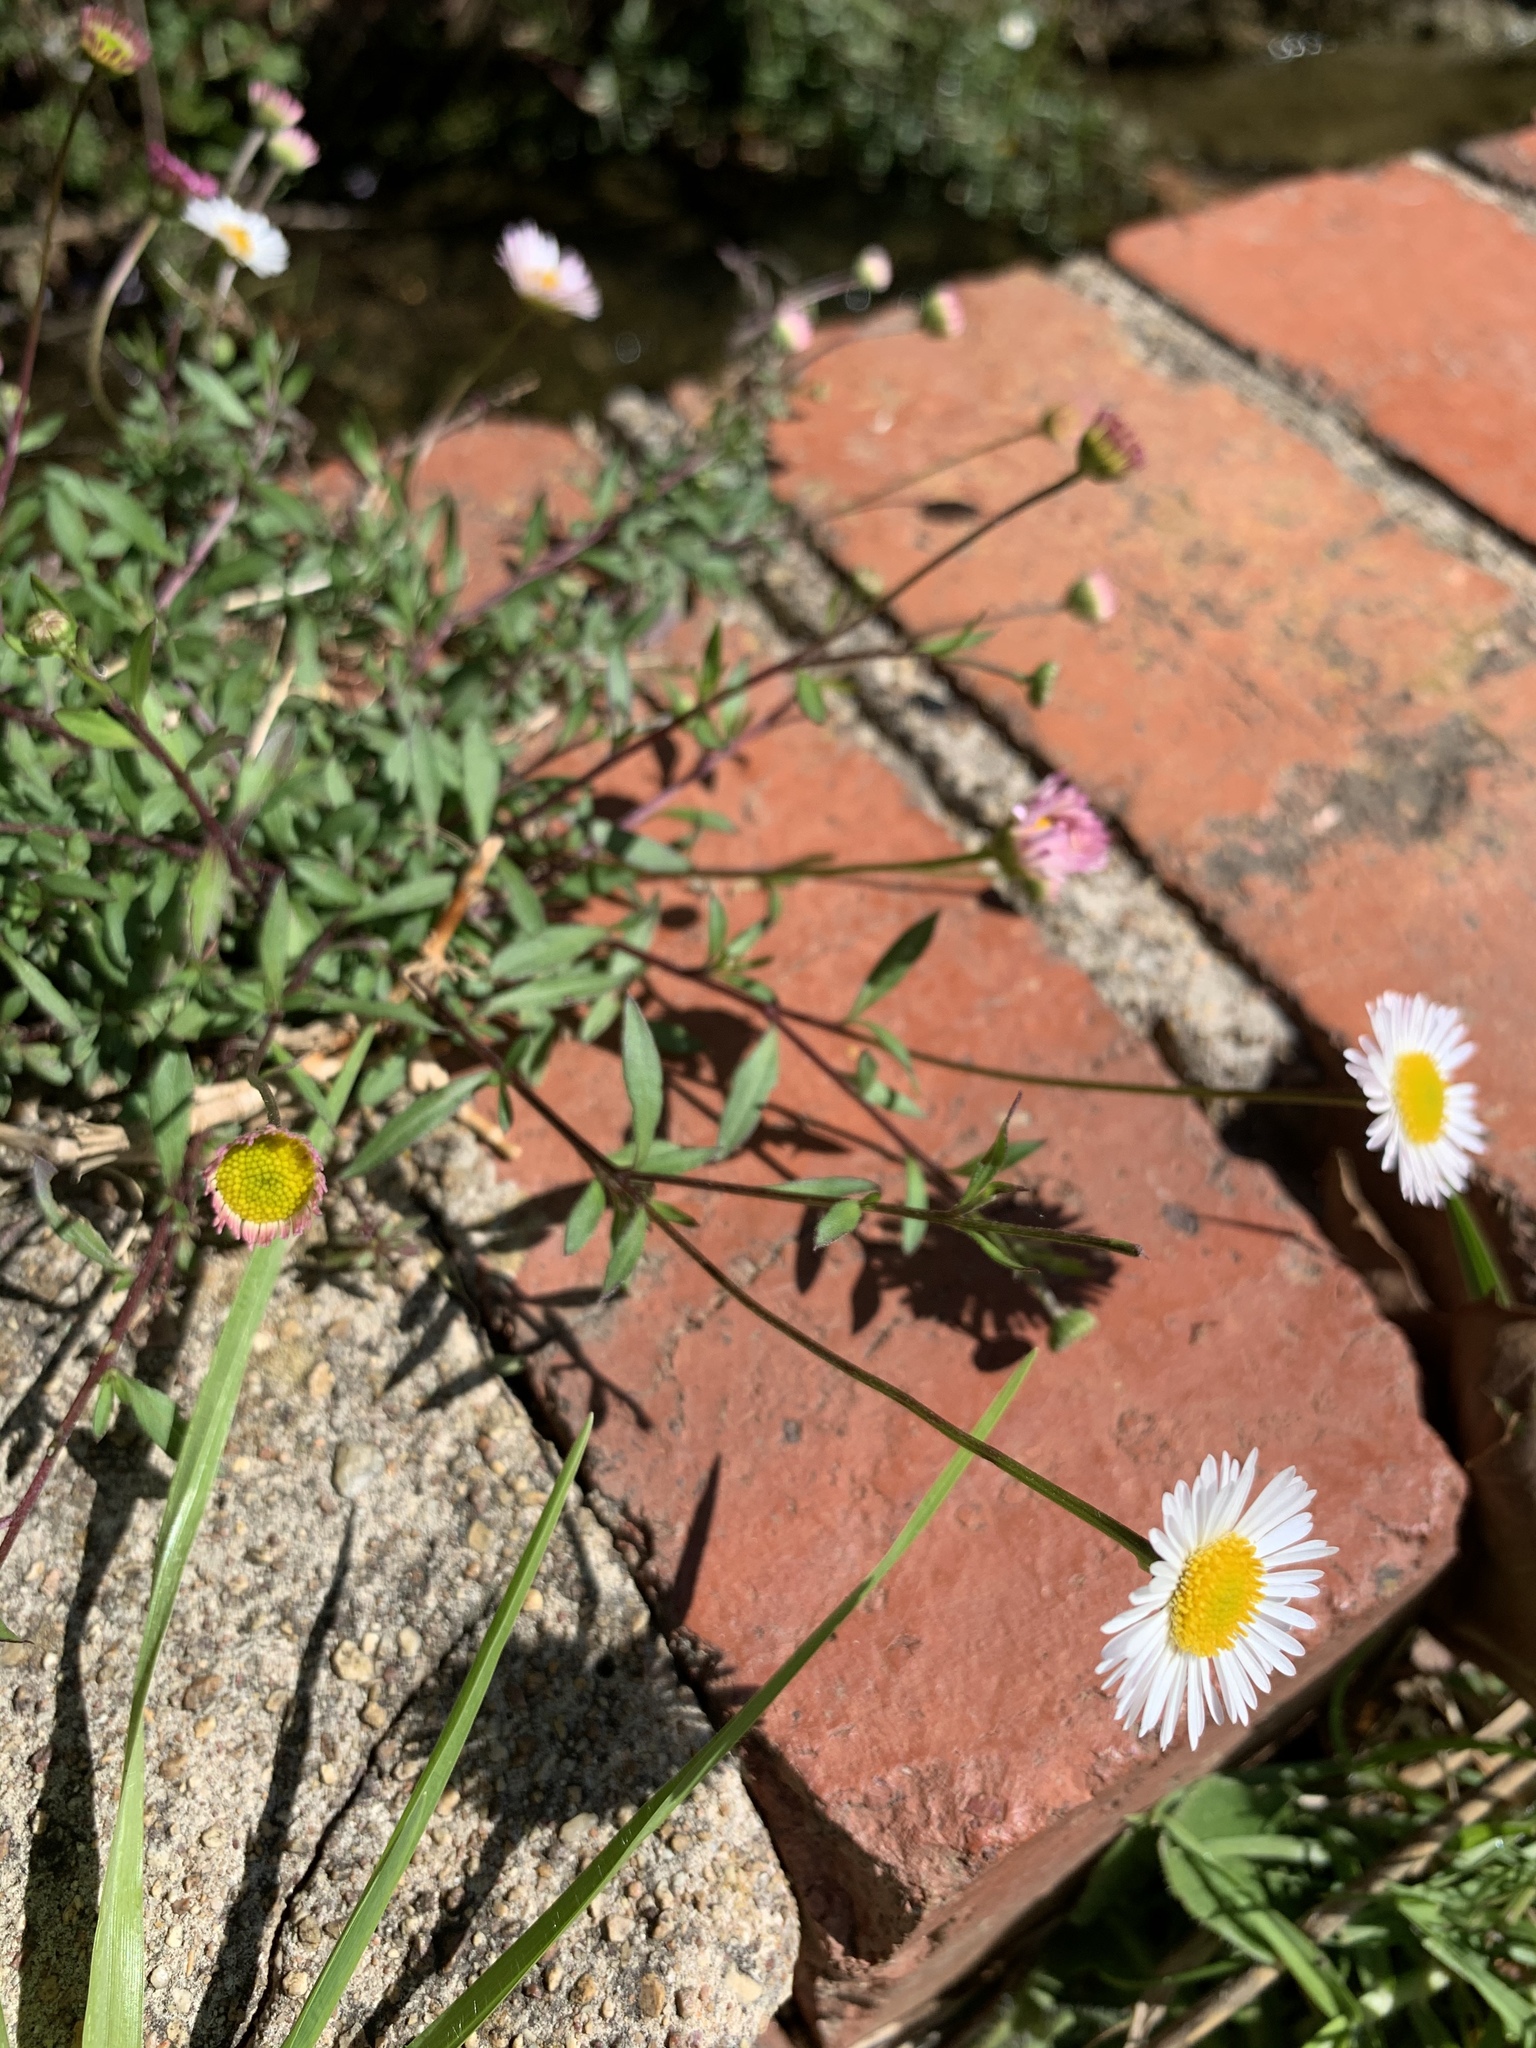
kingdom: Plantae
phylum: Tracheophyta
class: Magnoliopsida
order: Asterales
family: Asteraceae
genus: Erigeron
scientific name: Erigeron karvinskianus
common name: Mexican fleabane
